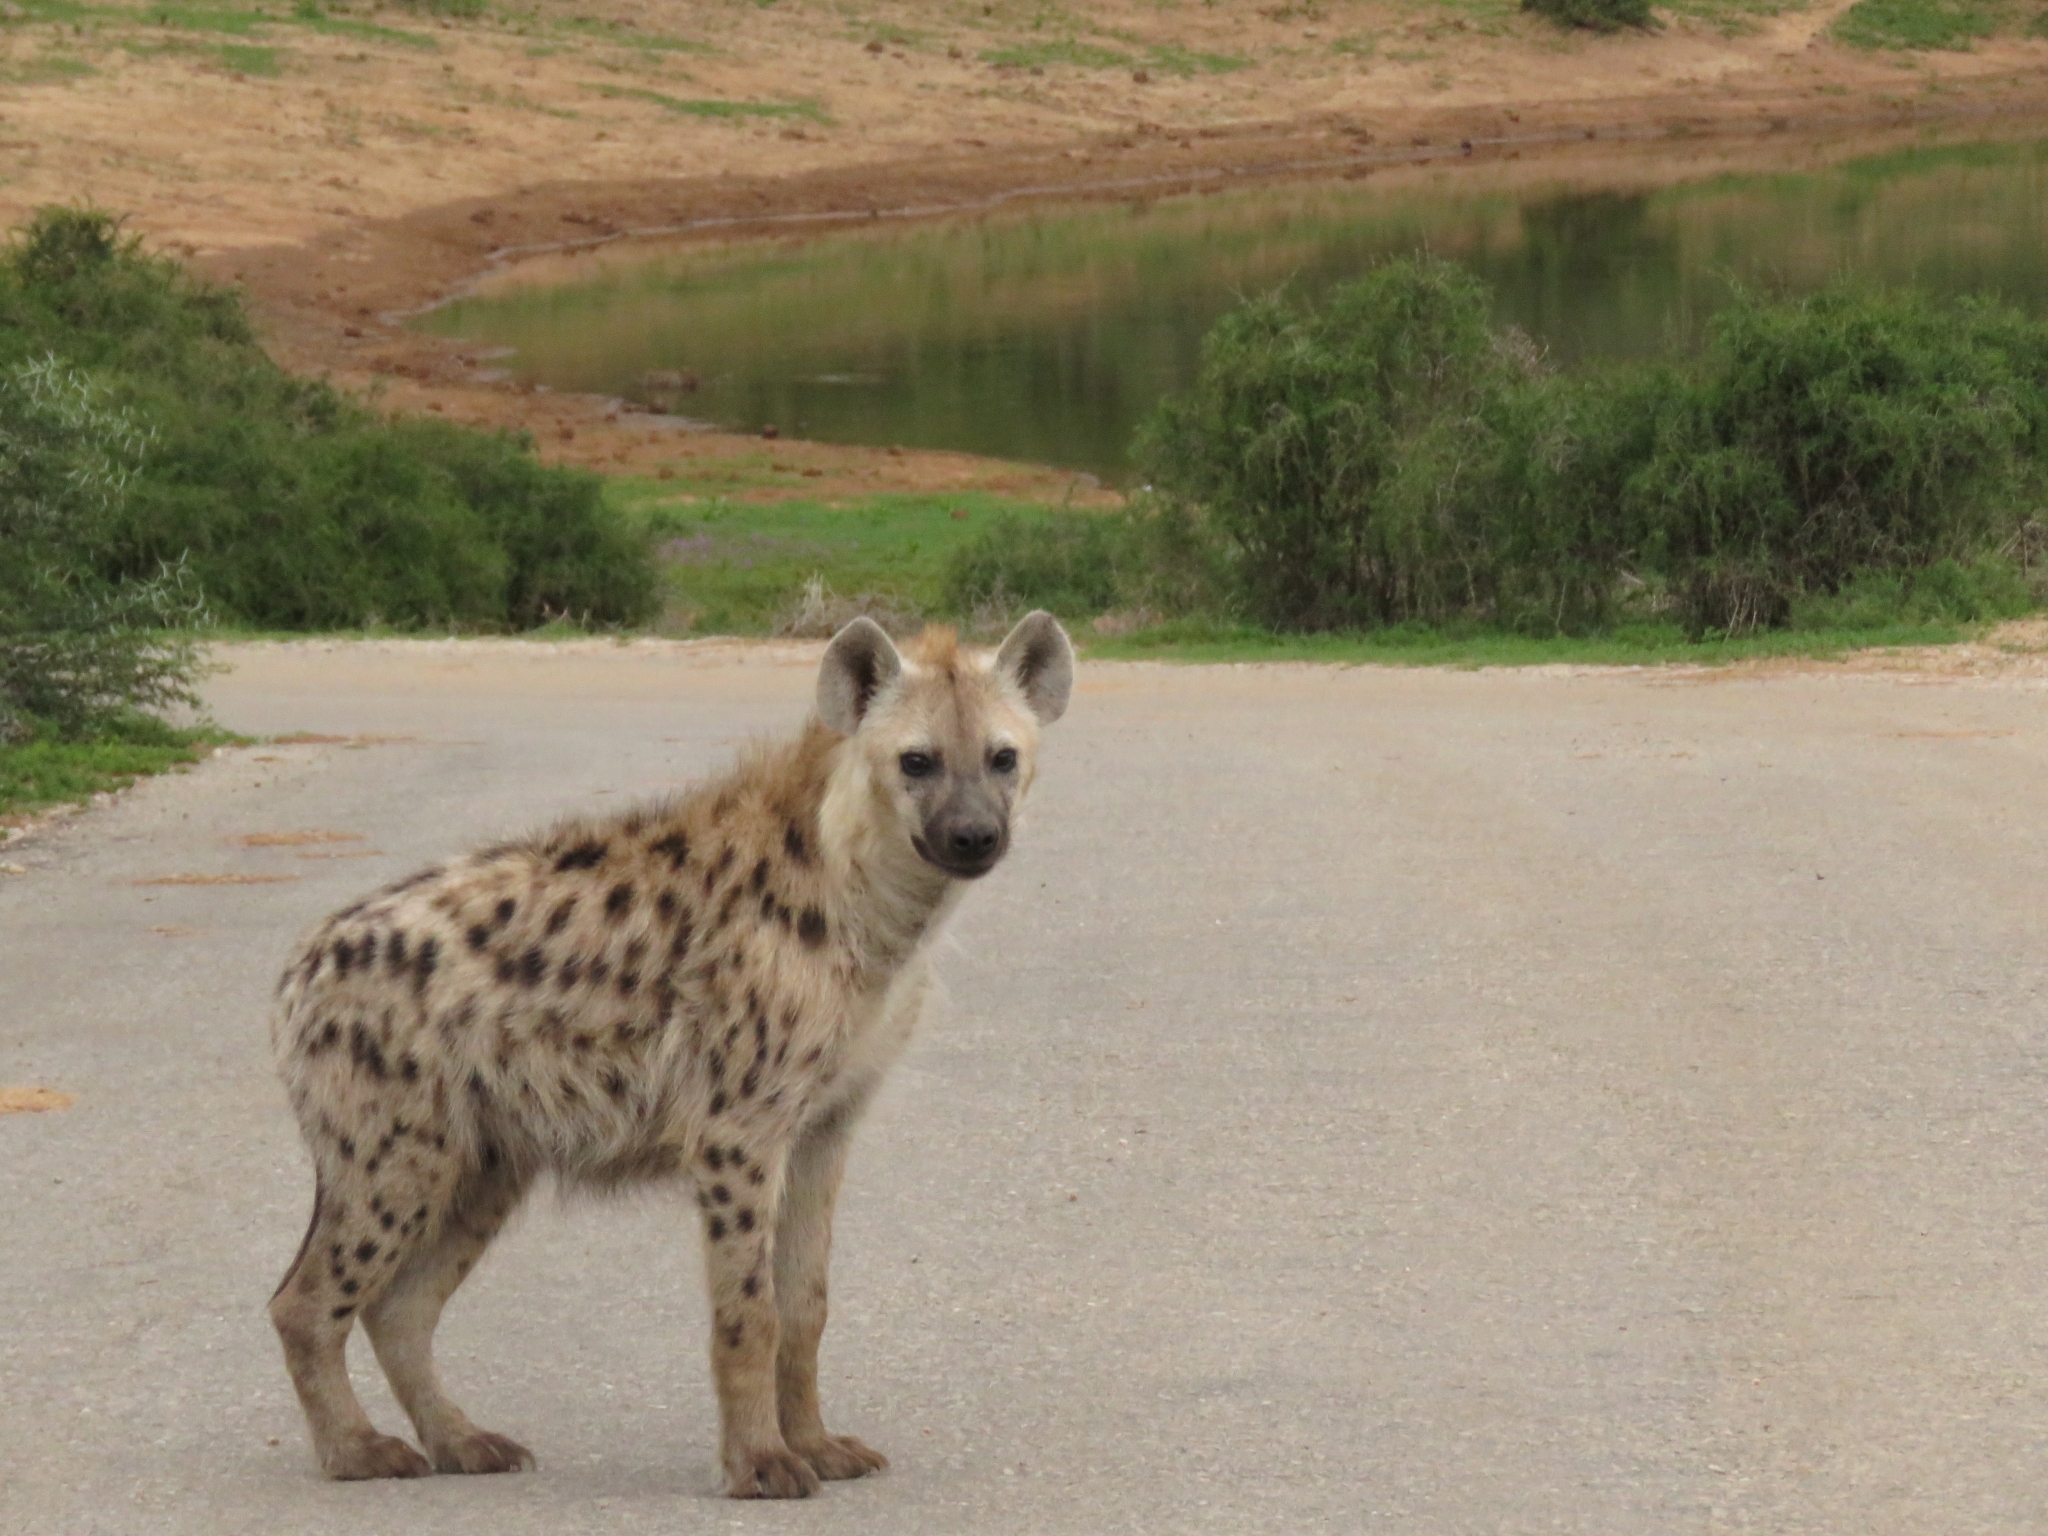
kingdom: Animalia
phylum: Chordata
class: Mammalia
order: Carnivora
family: Hyaenidae
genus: Crocuta
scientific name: Crocuta crocuta
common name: Spotted hyaena
